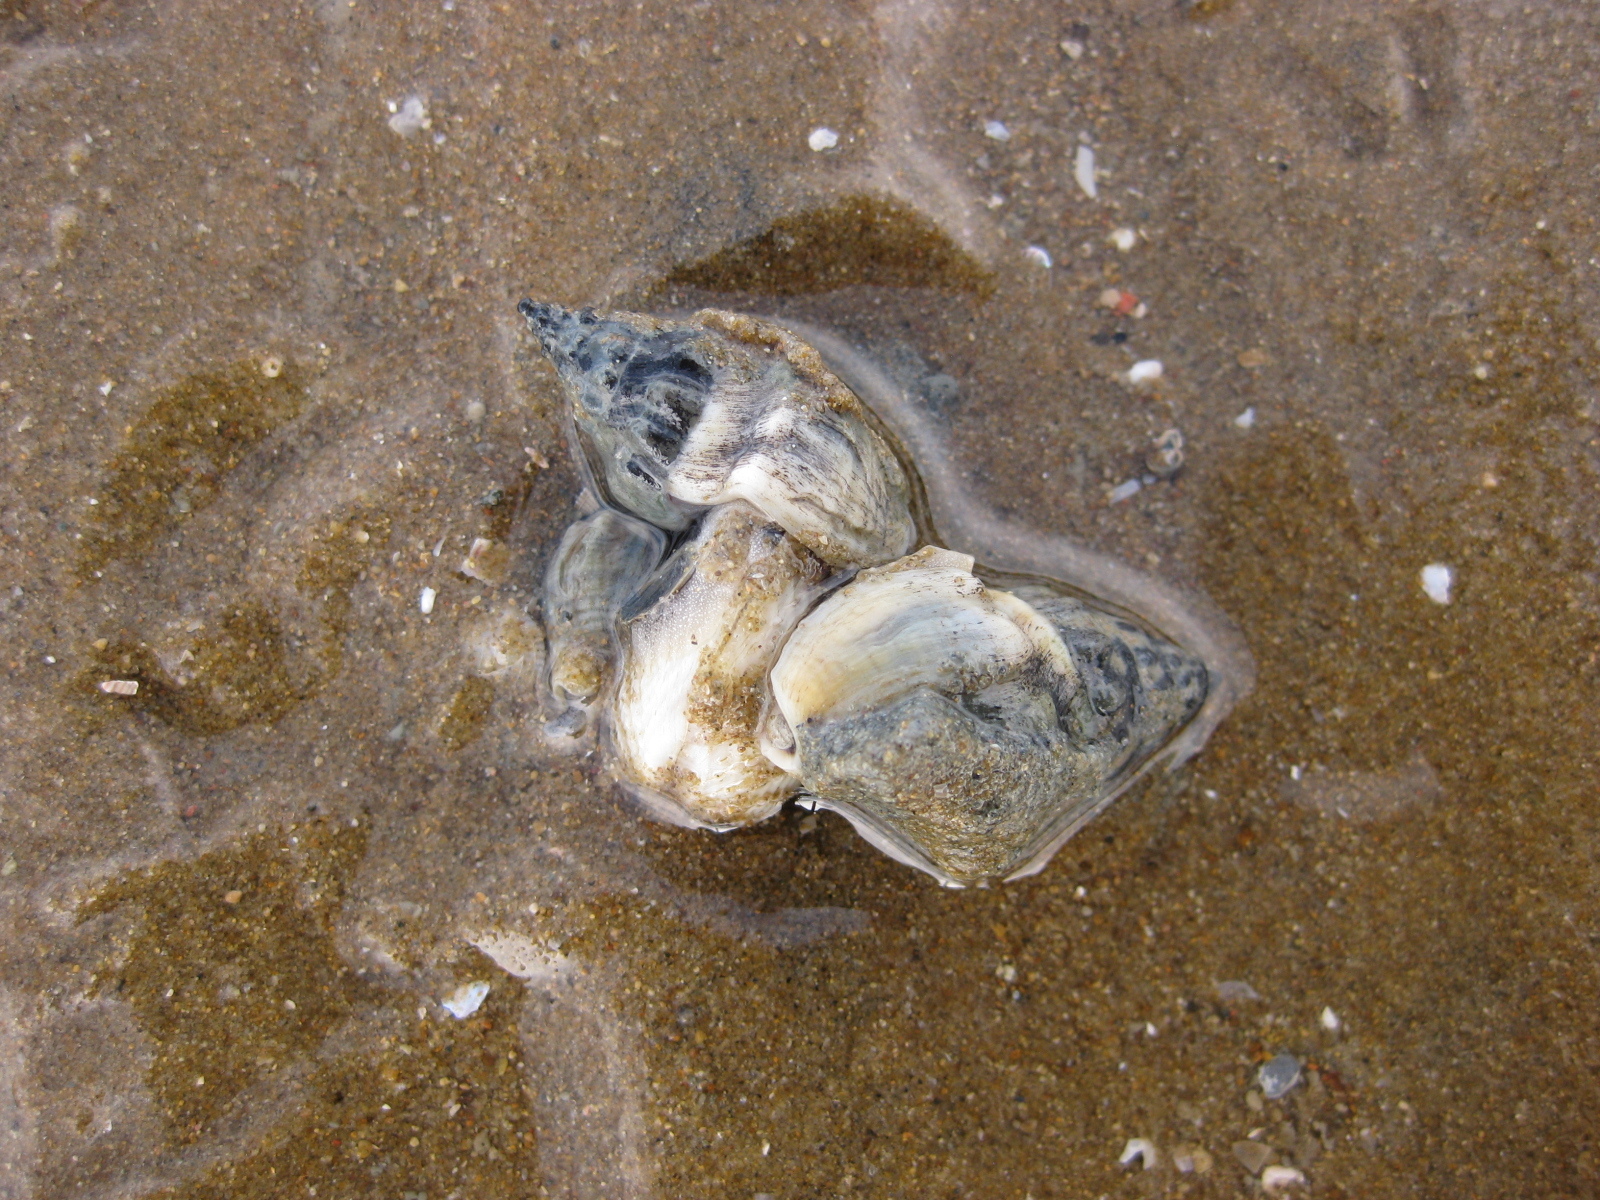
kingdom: Animalia
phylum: Mollusca
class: Gastropoda
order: Neogastropoda
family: Cominellidae
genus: Cominella
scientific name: Cominella glandiformis
